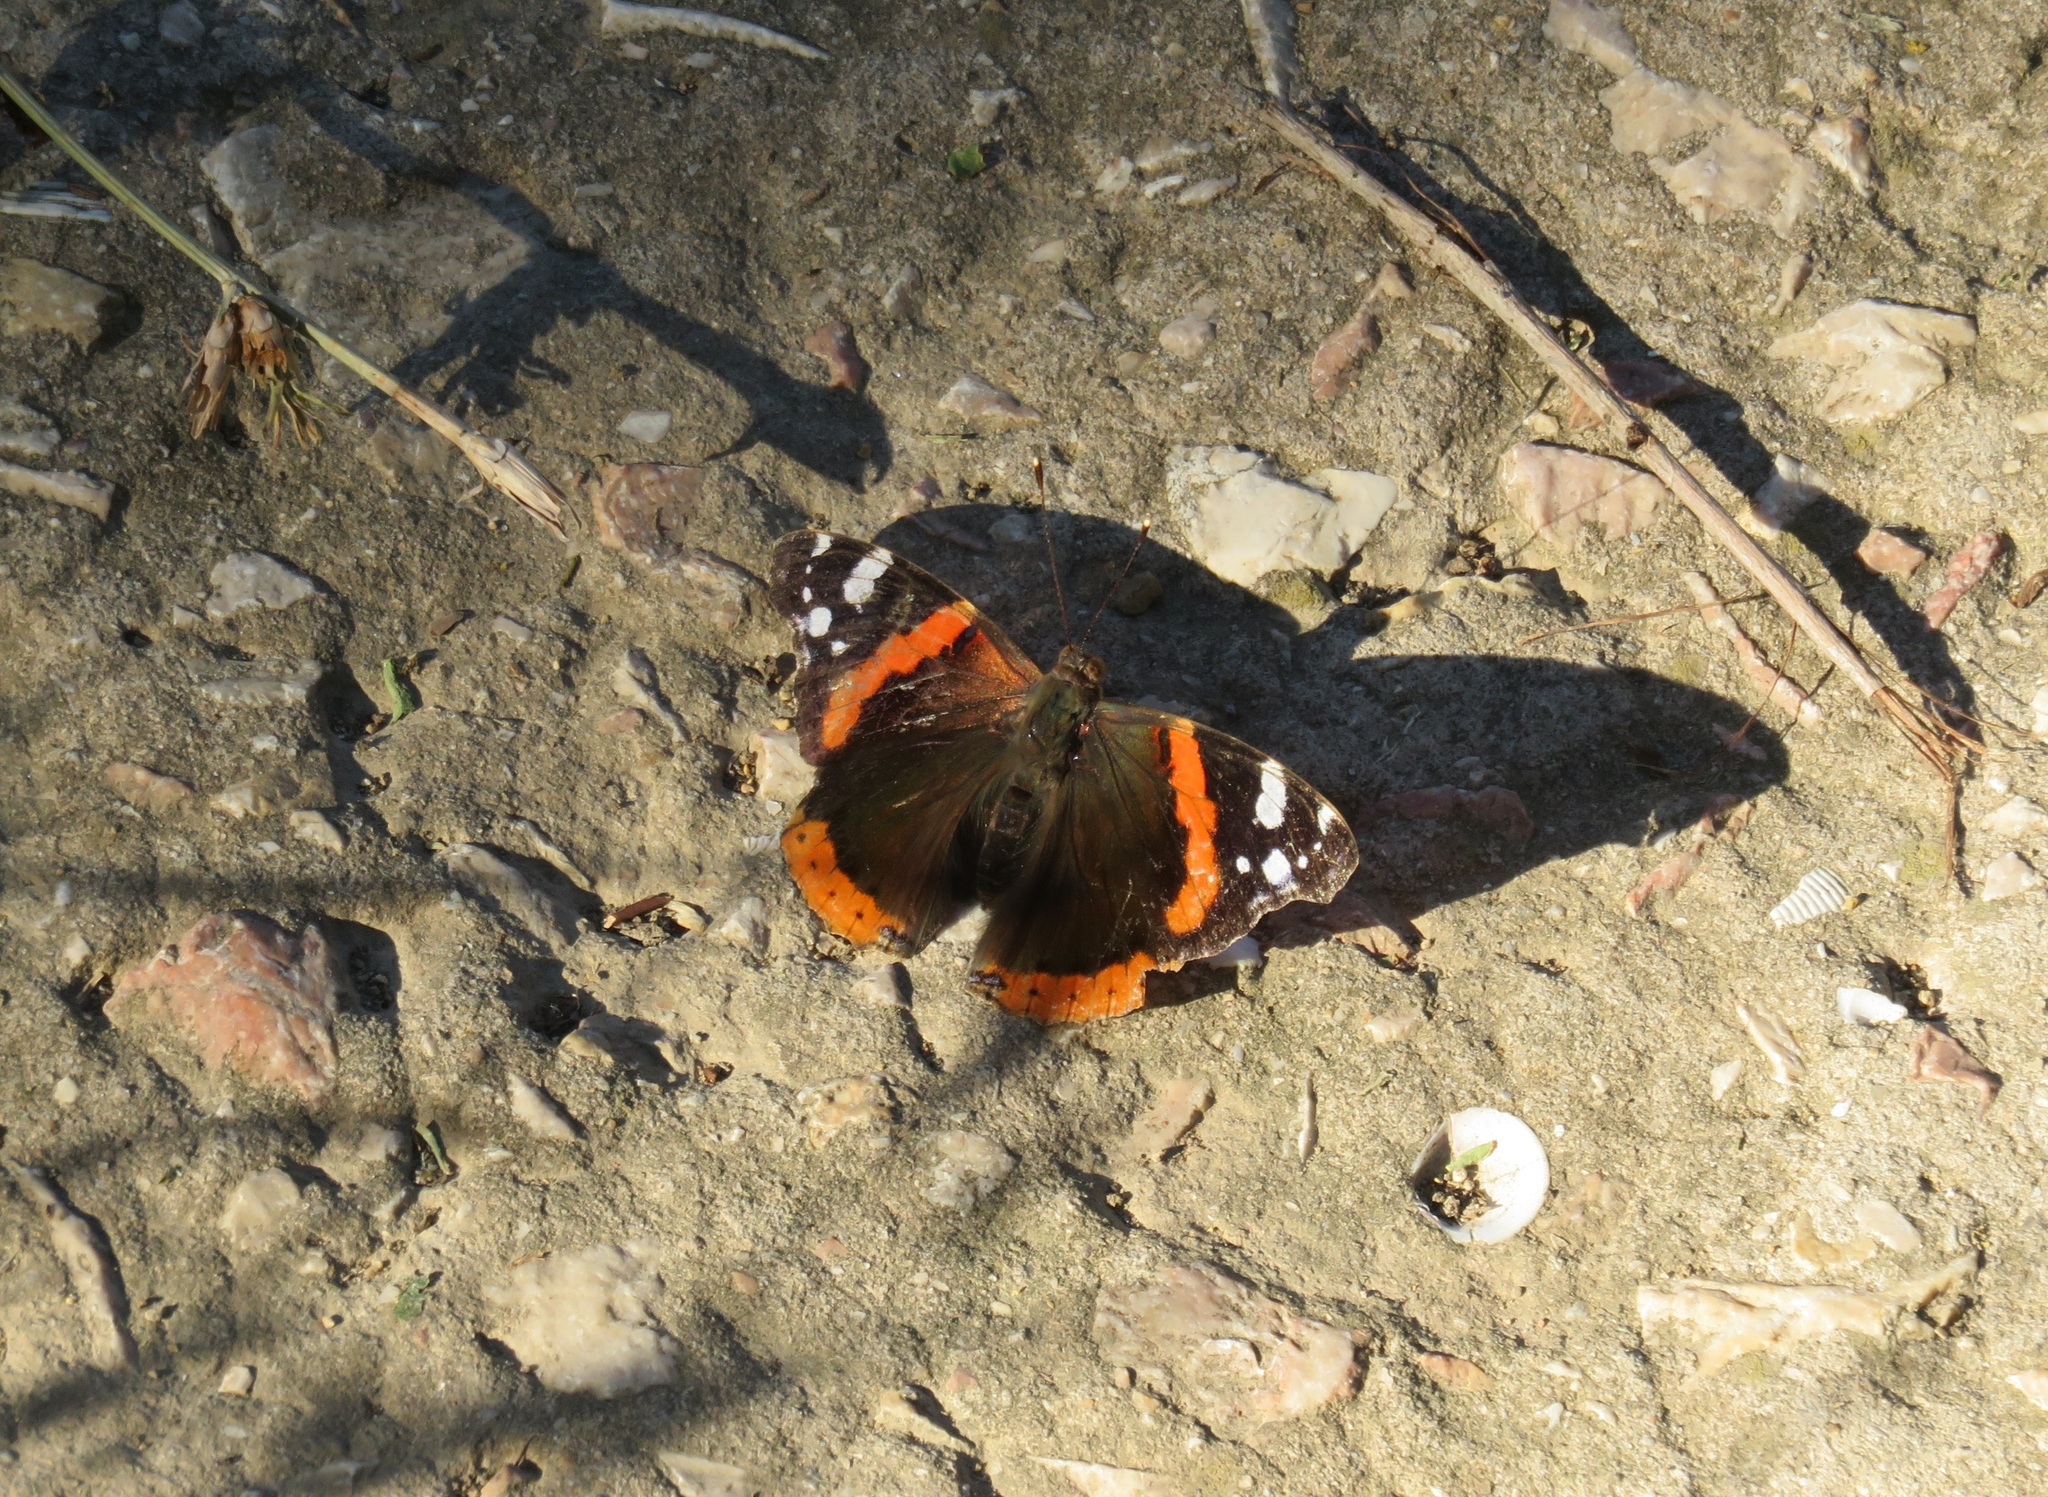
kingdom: Animalia
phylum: Arthropoda
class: Insecta
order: Lepidoptera
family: Nymphalidae
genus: Vanessa
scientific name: Vanessa atalanta
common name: Red admiral
